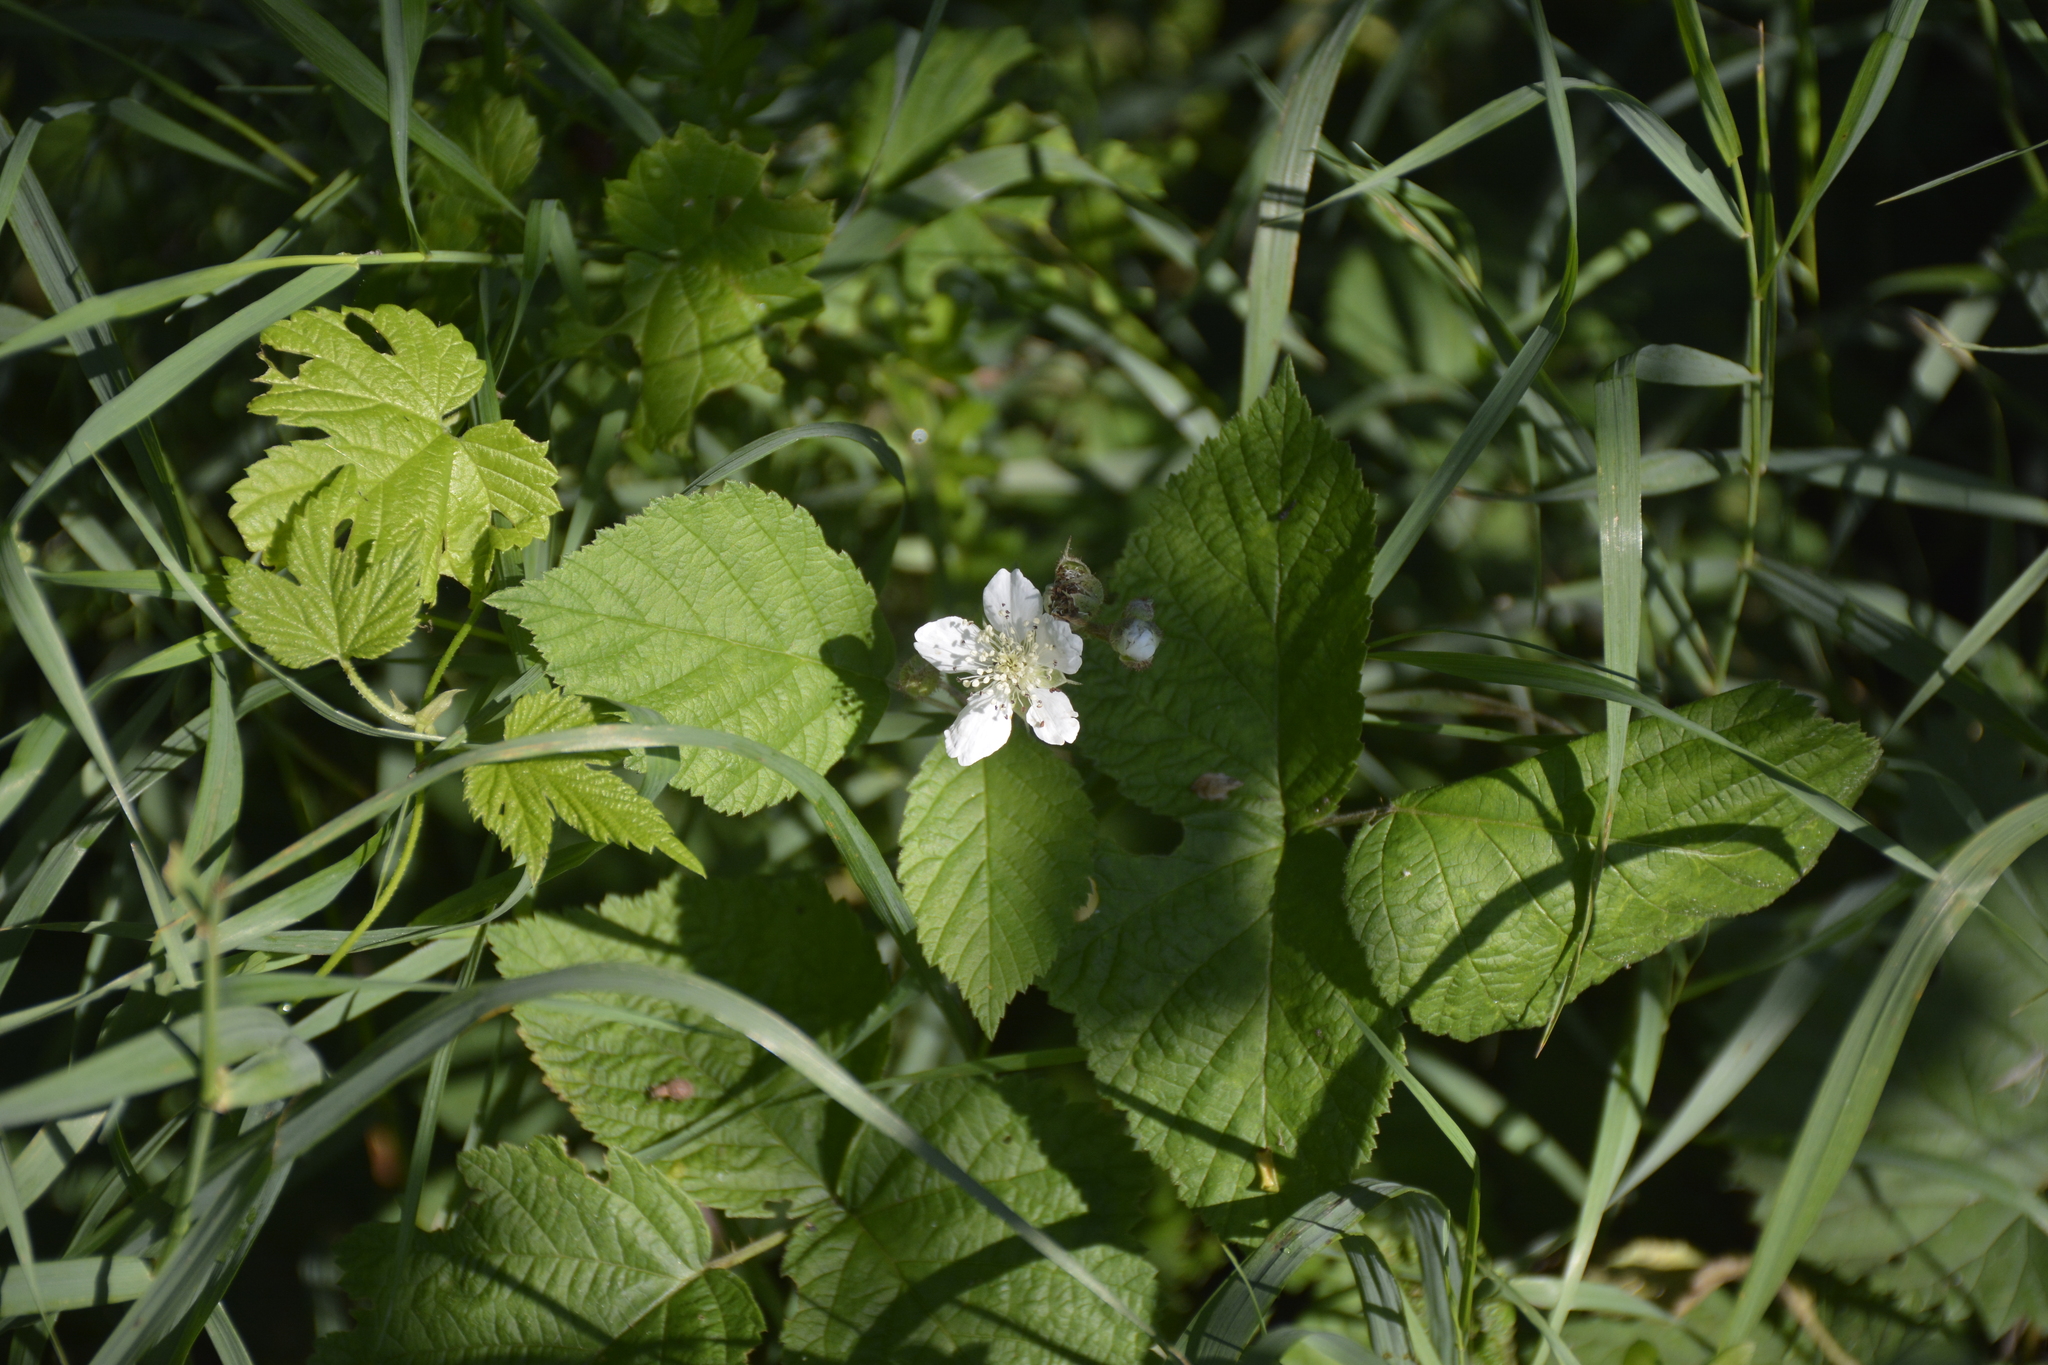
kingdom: Plantae
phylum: Tracheophyta
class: Magnoliopsida
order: Rosales
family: Rosaceae
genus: Rubus
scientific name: Rubus caesius
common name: Dewberry
